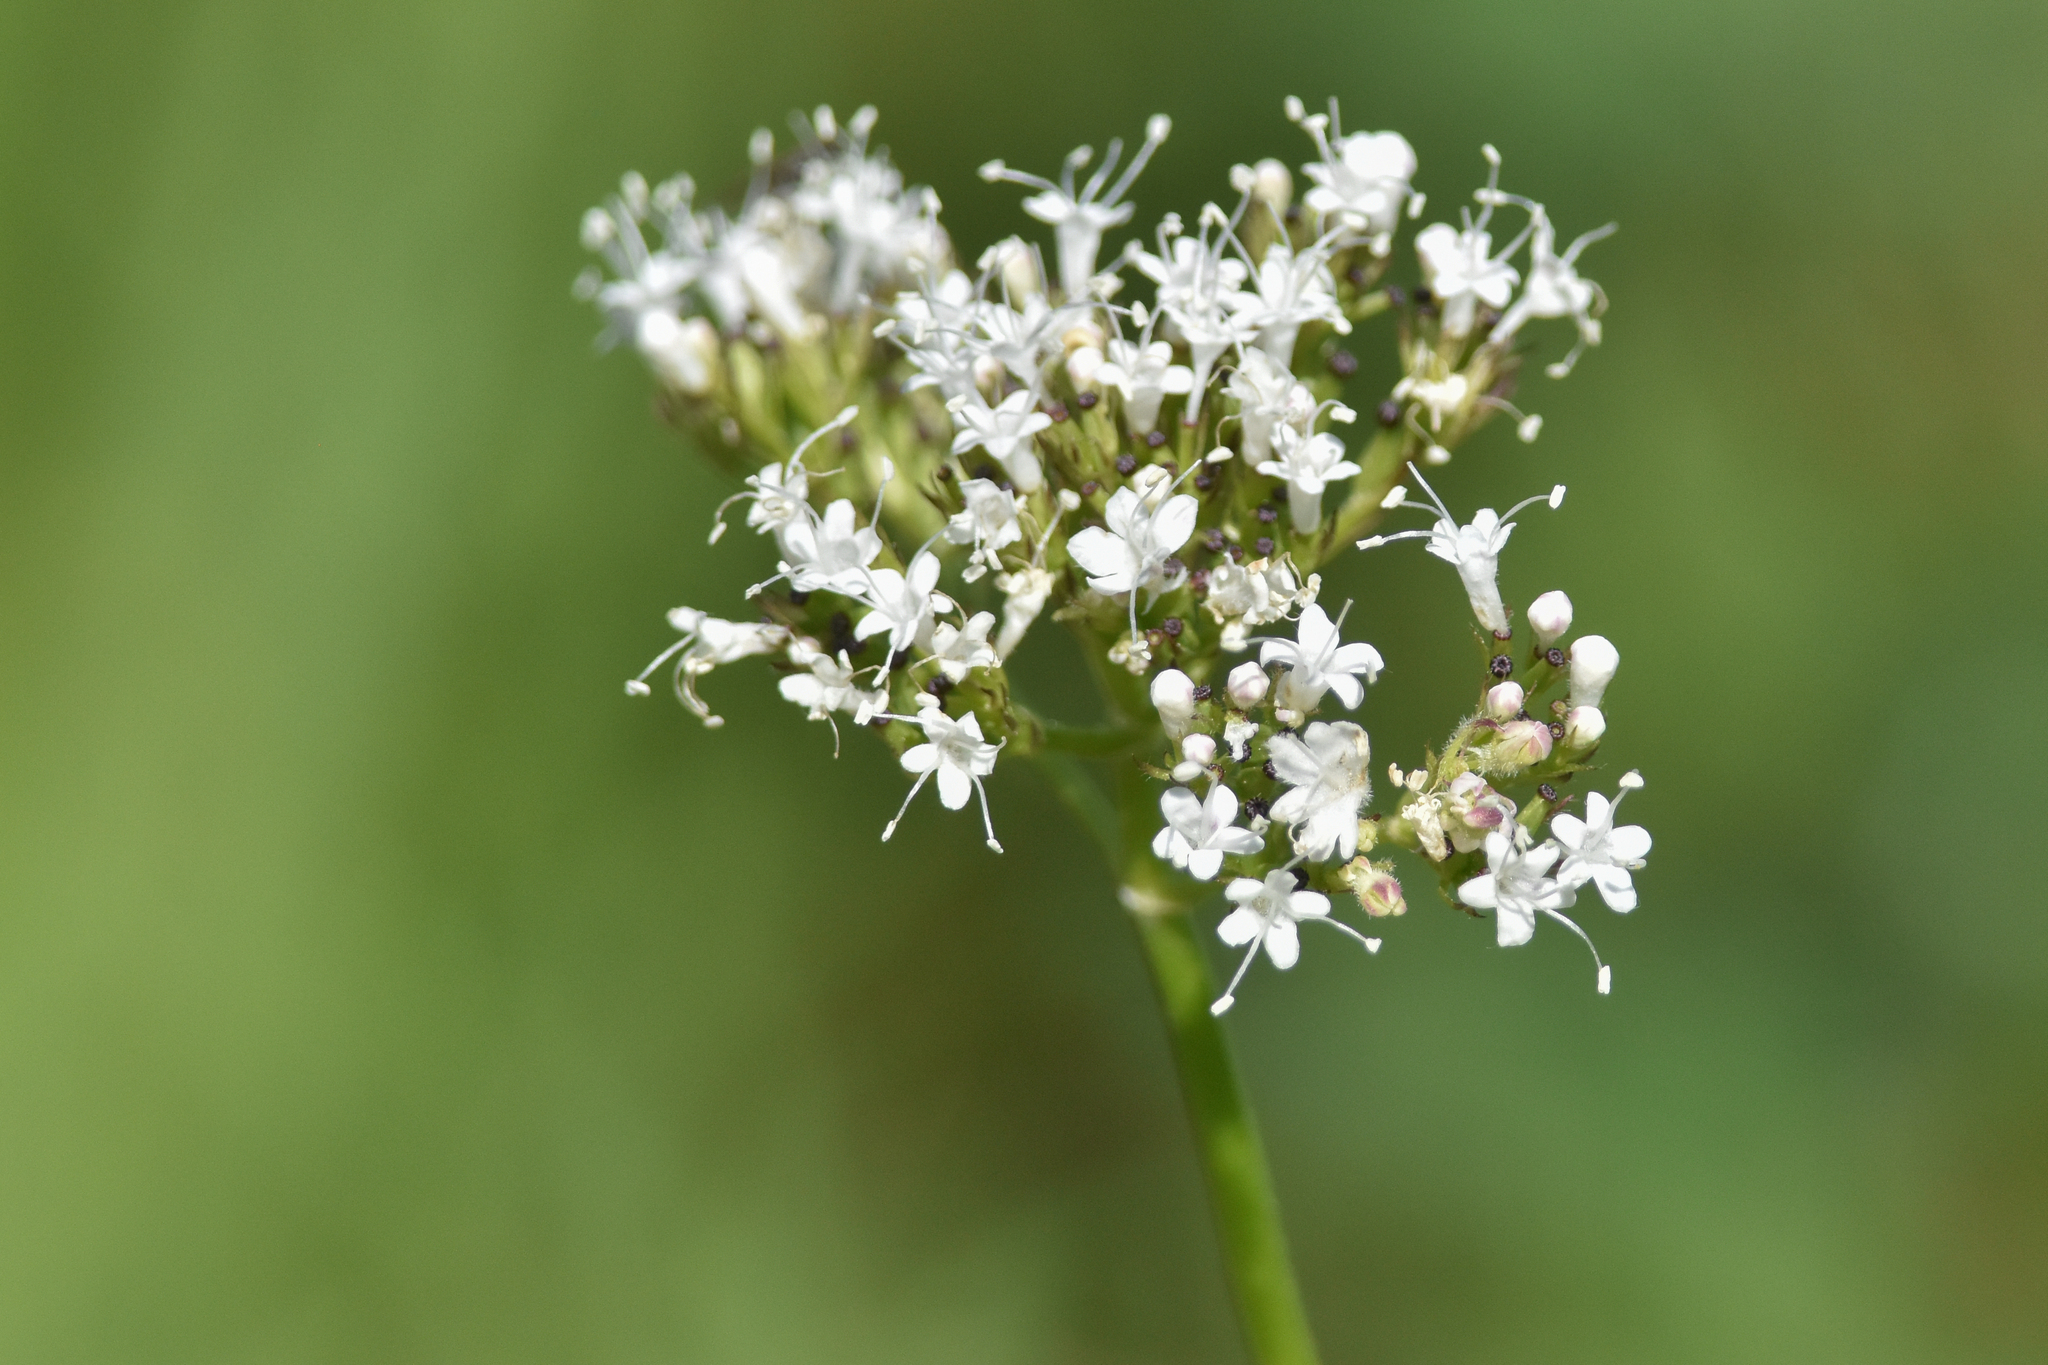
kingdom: Plantae
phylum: Tracheophyta
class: Magnoliopsida
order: Dipsacales
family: Caprifoliaceae
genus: Valeriana
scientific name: Valeriana sitchensis
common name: Pacific valerian
